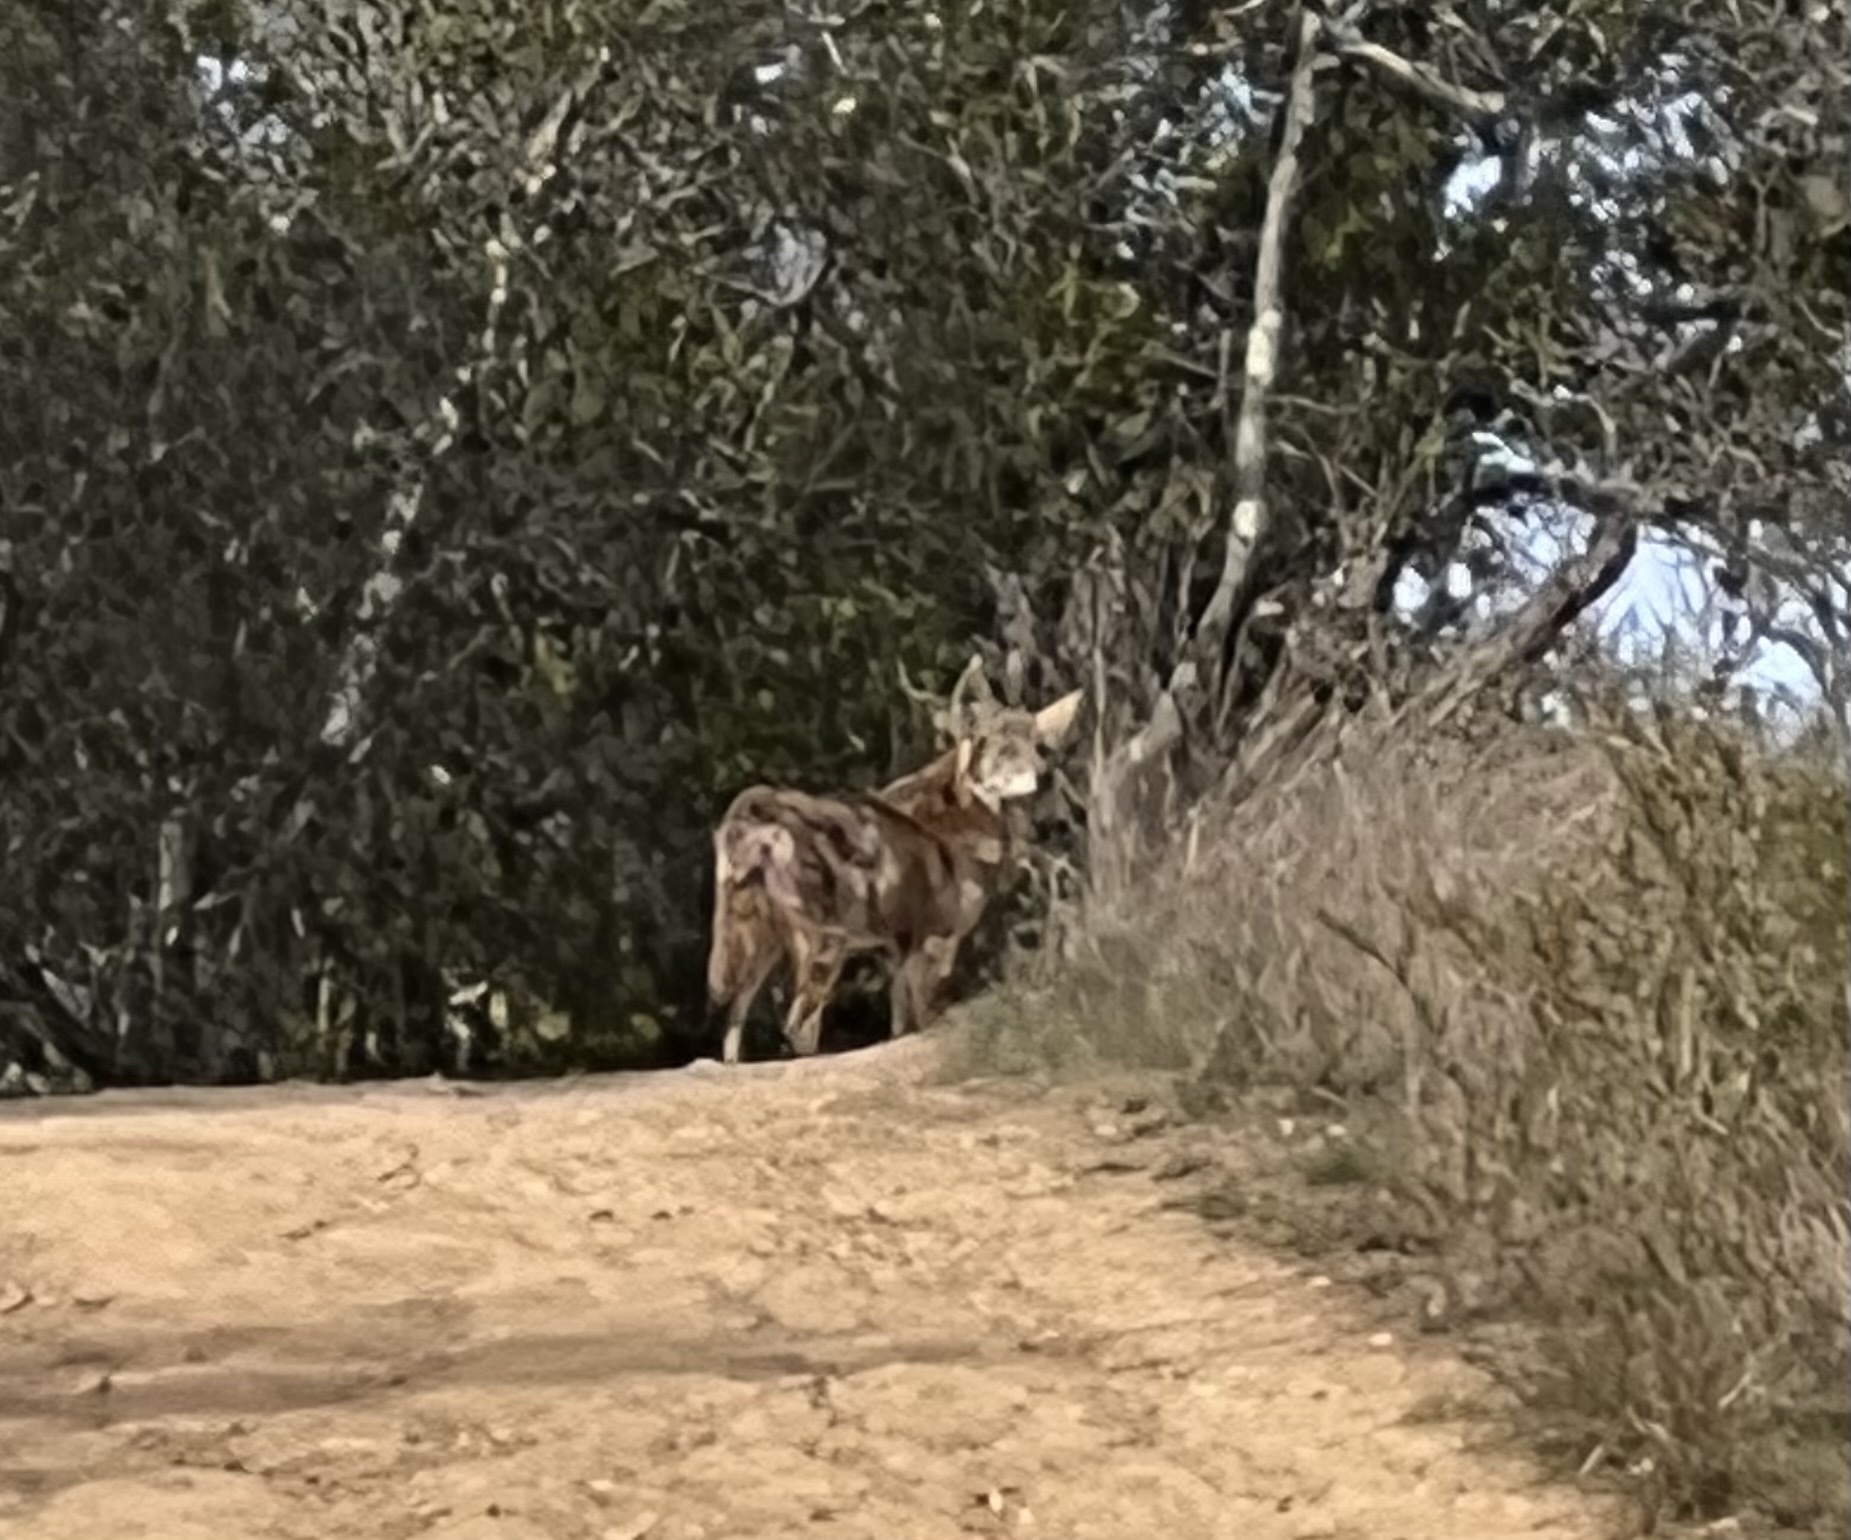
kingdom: Animalia
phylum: Chordata
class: Mammalia
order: Carnivora
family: Canidae
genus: Canis
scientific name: Canis latrans
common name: Coyote
